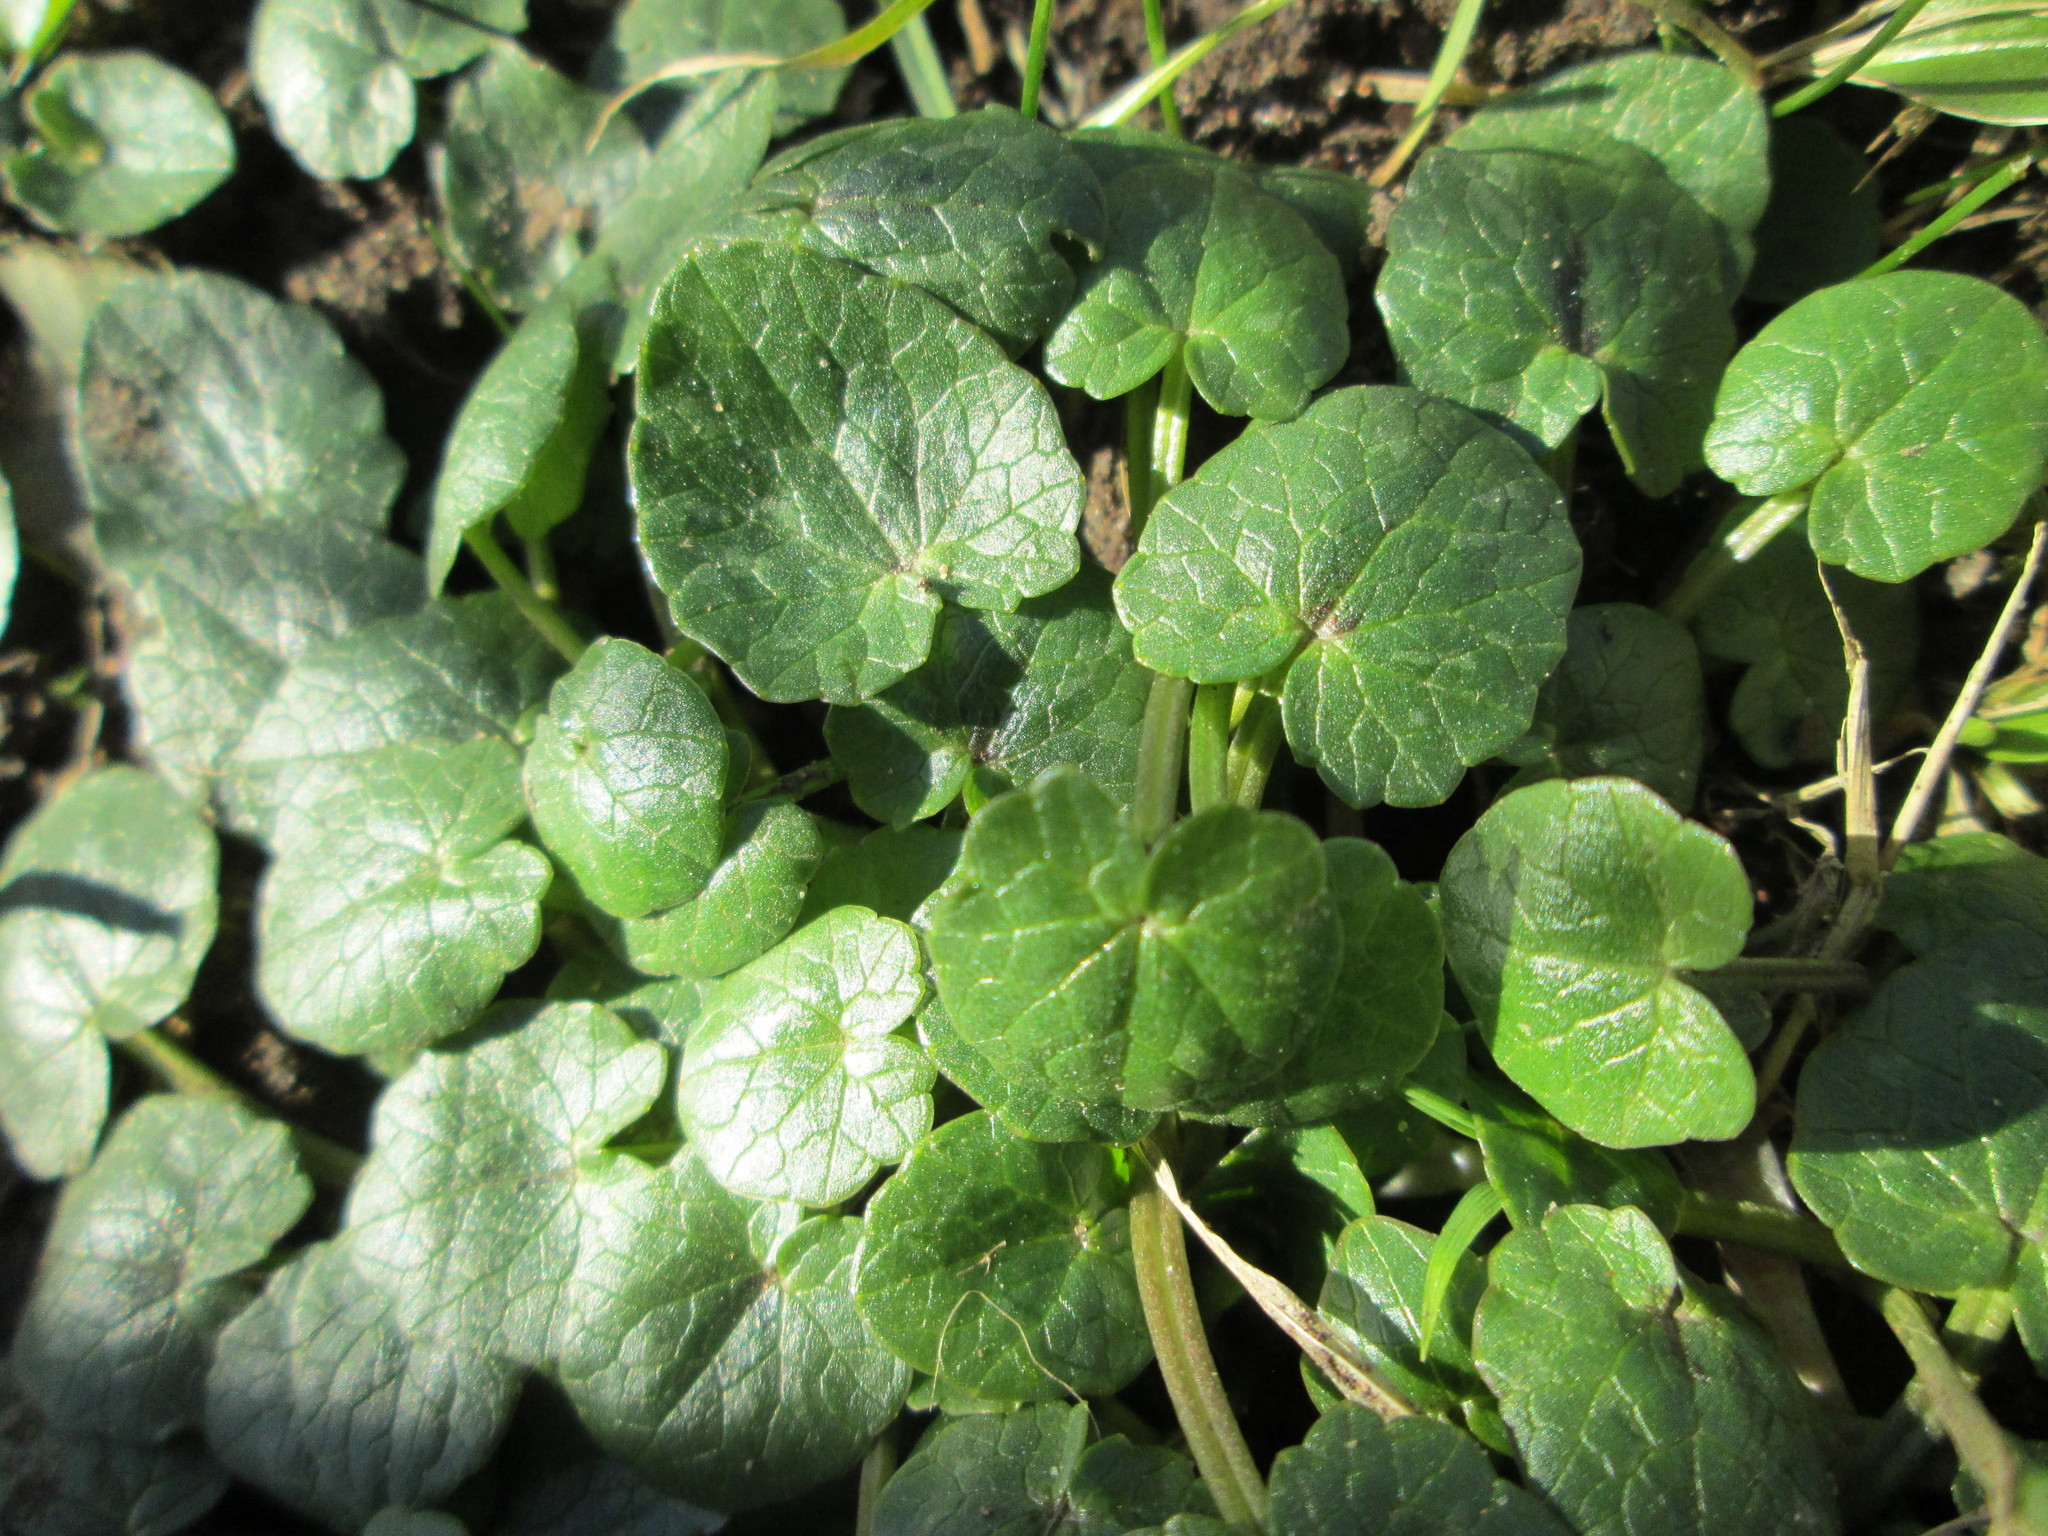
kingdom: Plantae
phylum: Tracheophyta
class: Magnoliopsida
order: Ranunculales
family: Ranunculaceae
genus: Ficaria
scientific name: Ficaria verna
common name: Lesser celandine
